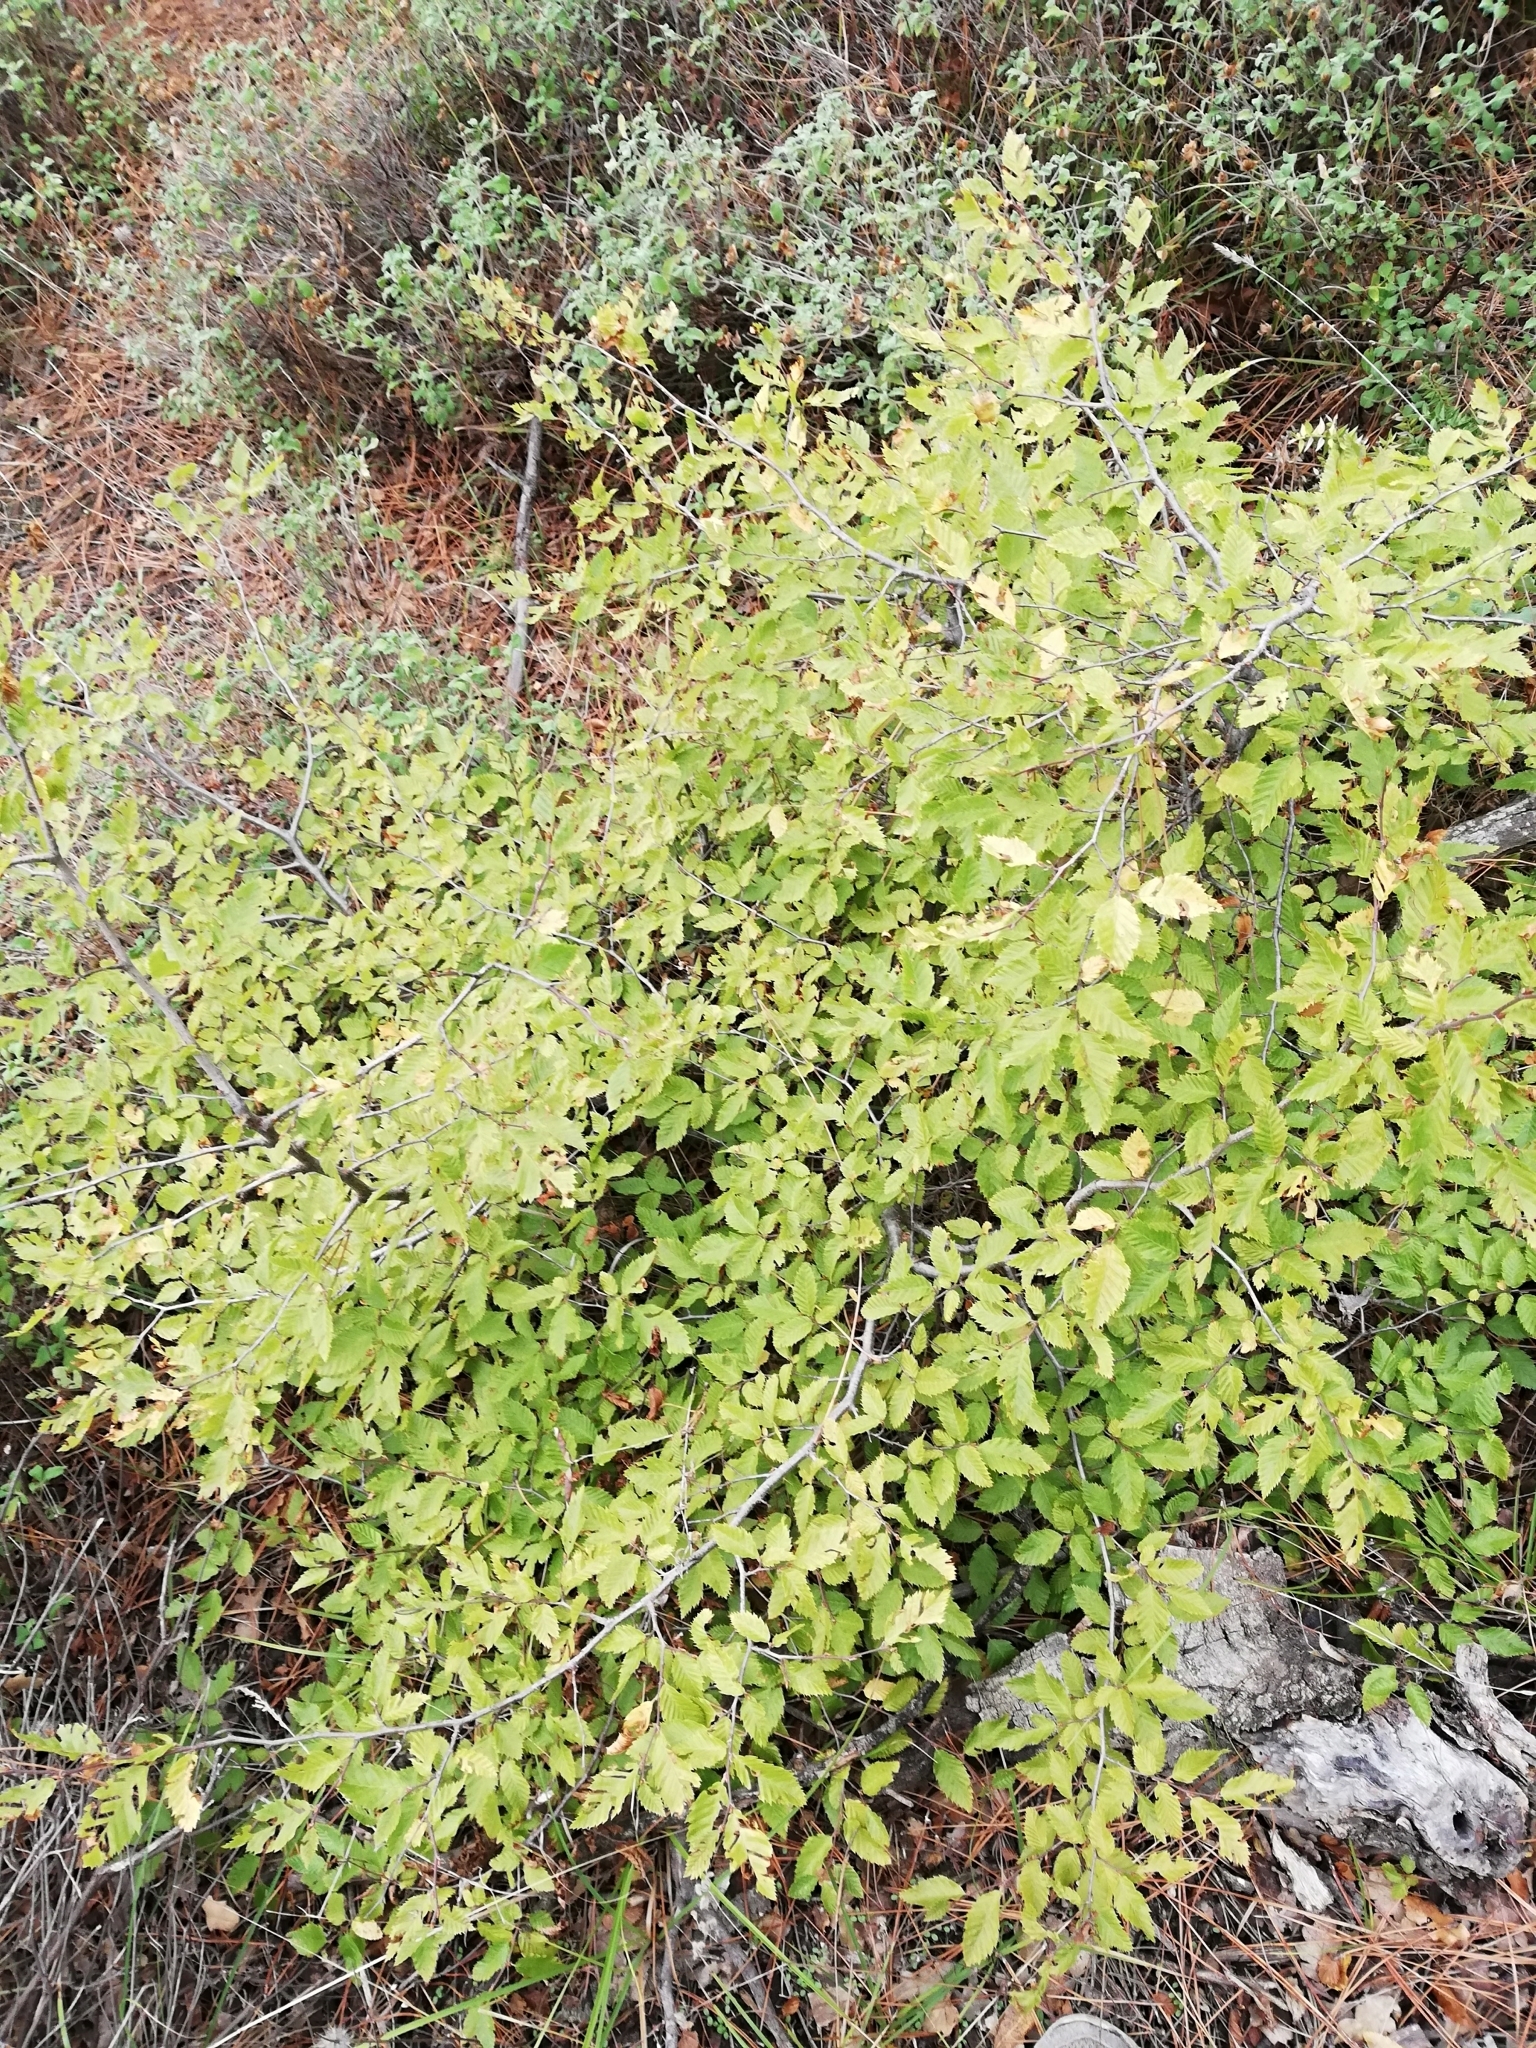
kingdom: Plantae
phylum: Tracheophyta
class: Magnoliopsida
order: Fagales
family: Betulaceae
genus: Carpinus
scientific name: Carpinus orientalis
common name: Eastern hornbeam
